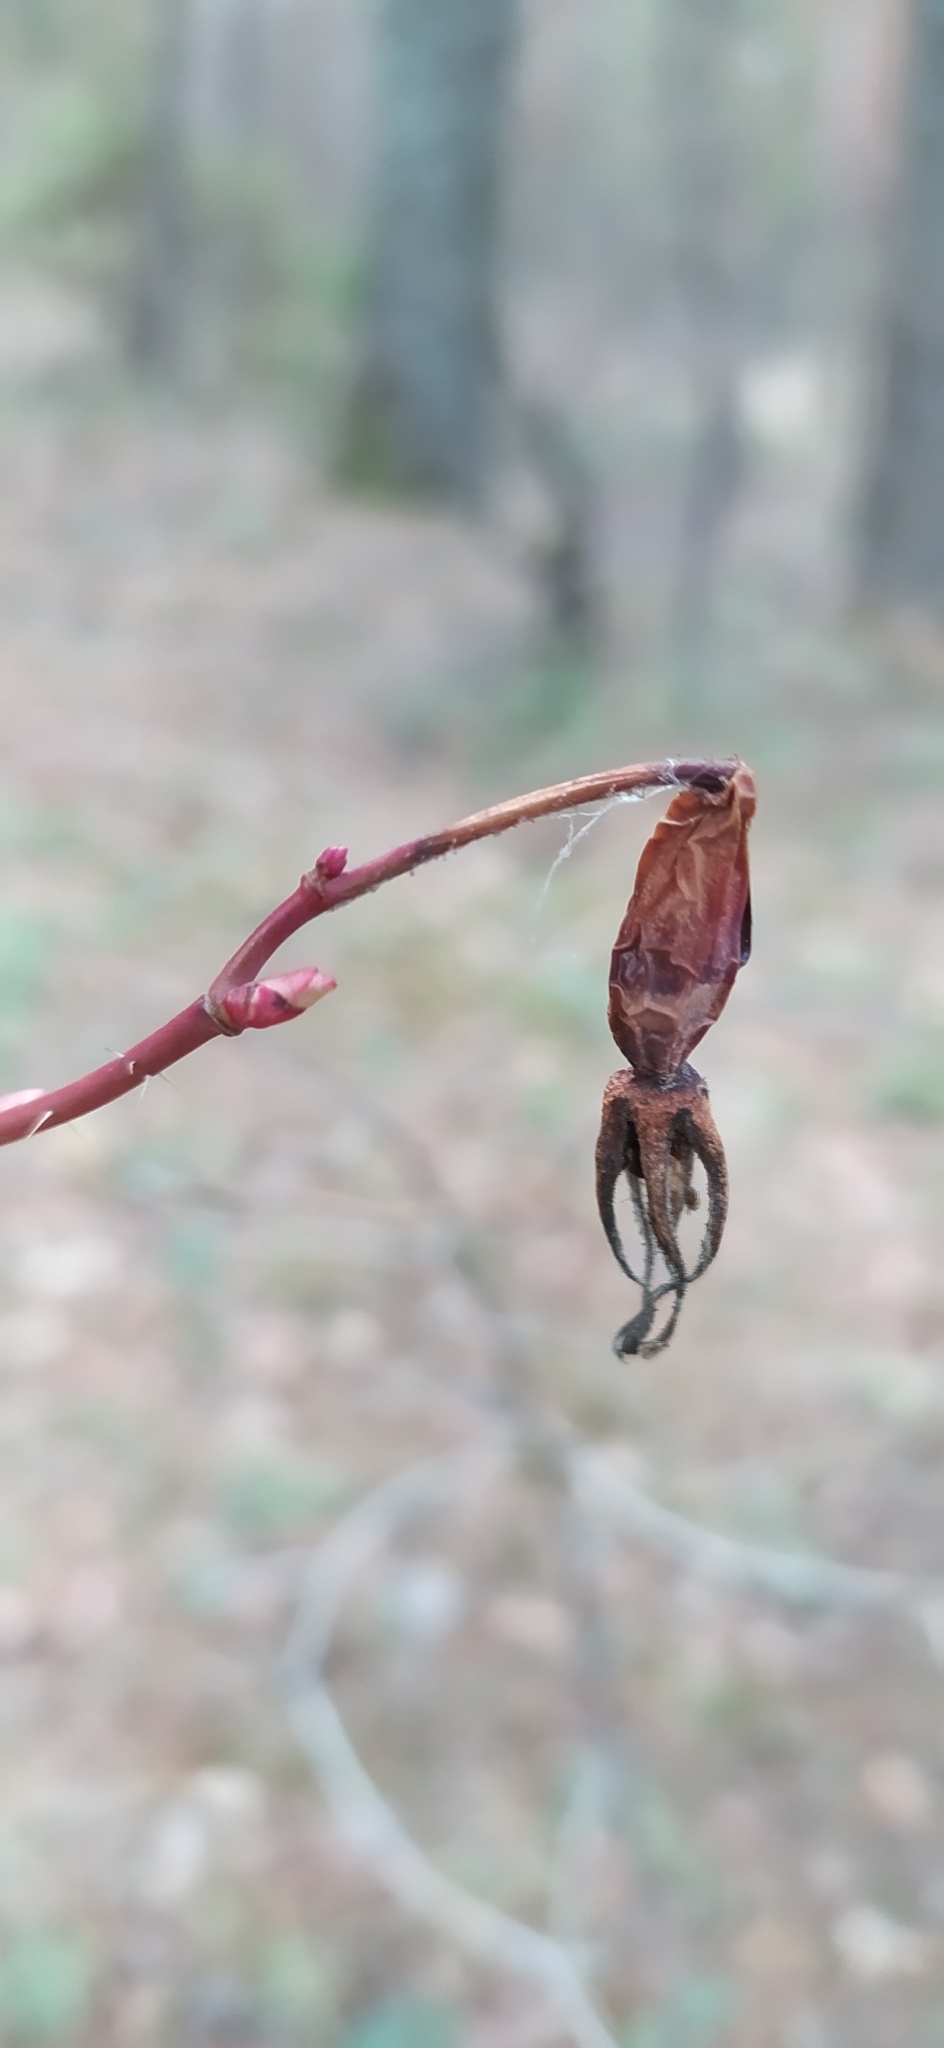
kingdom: Plantae
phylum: Tracheophyta
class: Magnoliopsida
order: Rosales
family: Rosaceae
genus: Rosa
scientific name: Rosa acicularis
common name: Prickly rose
